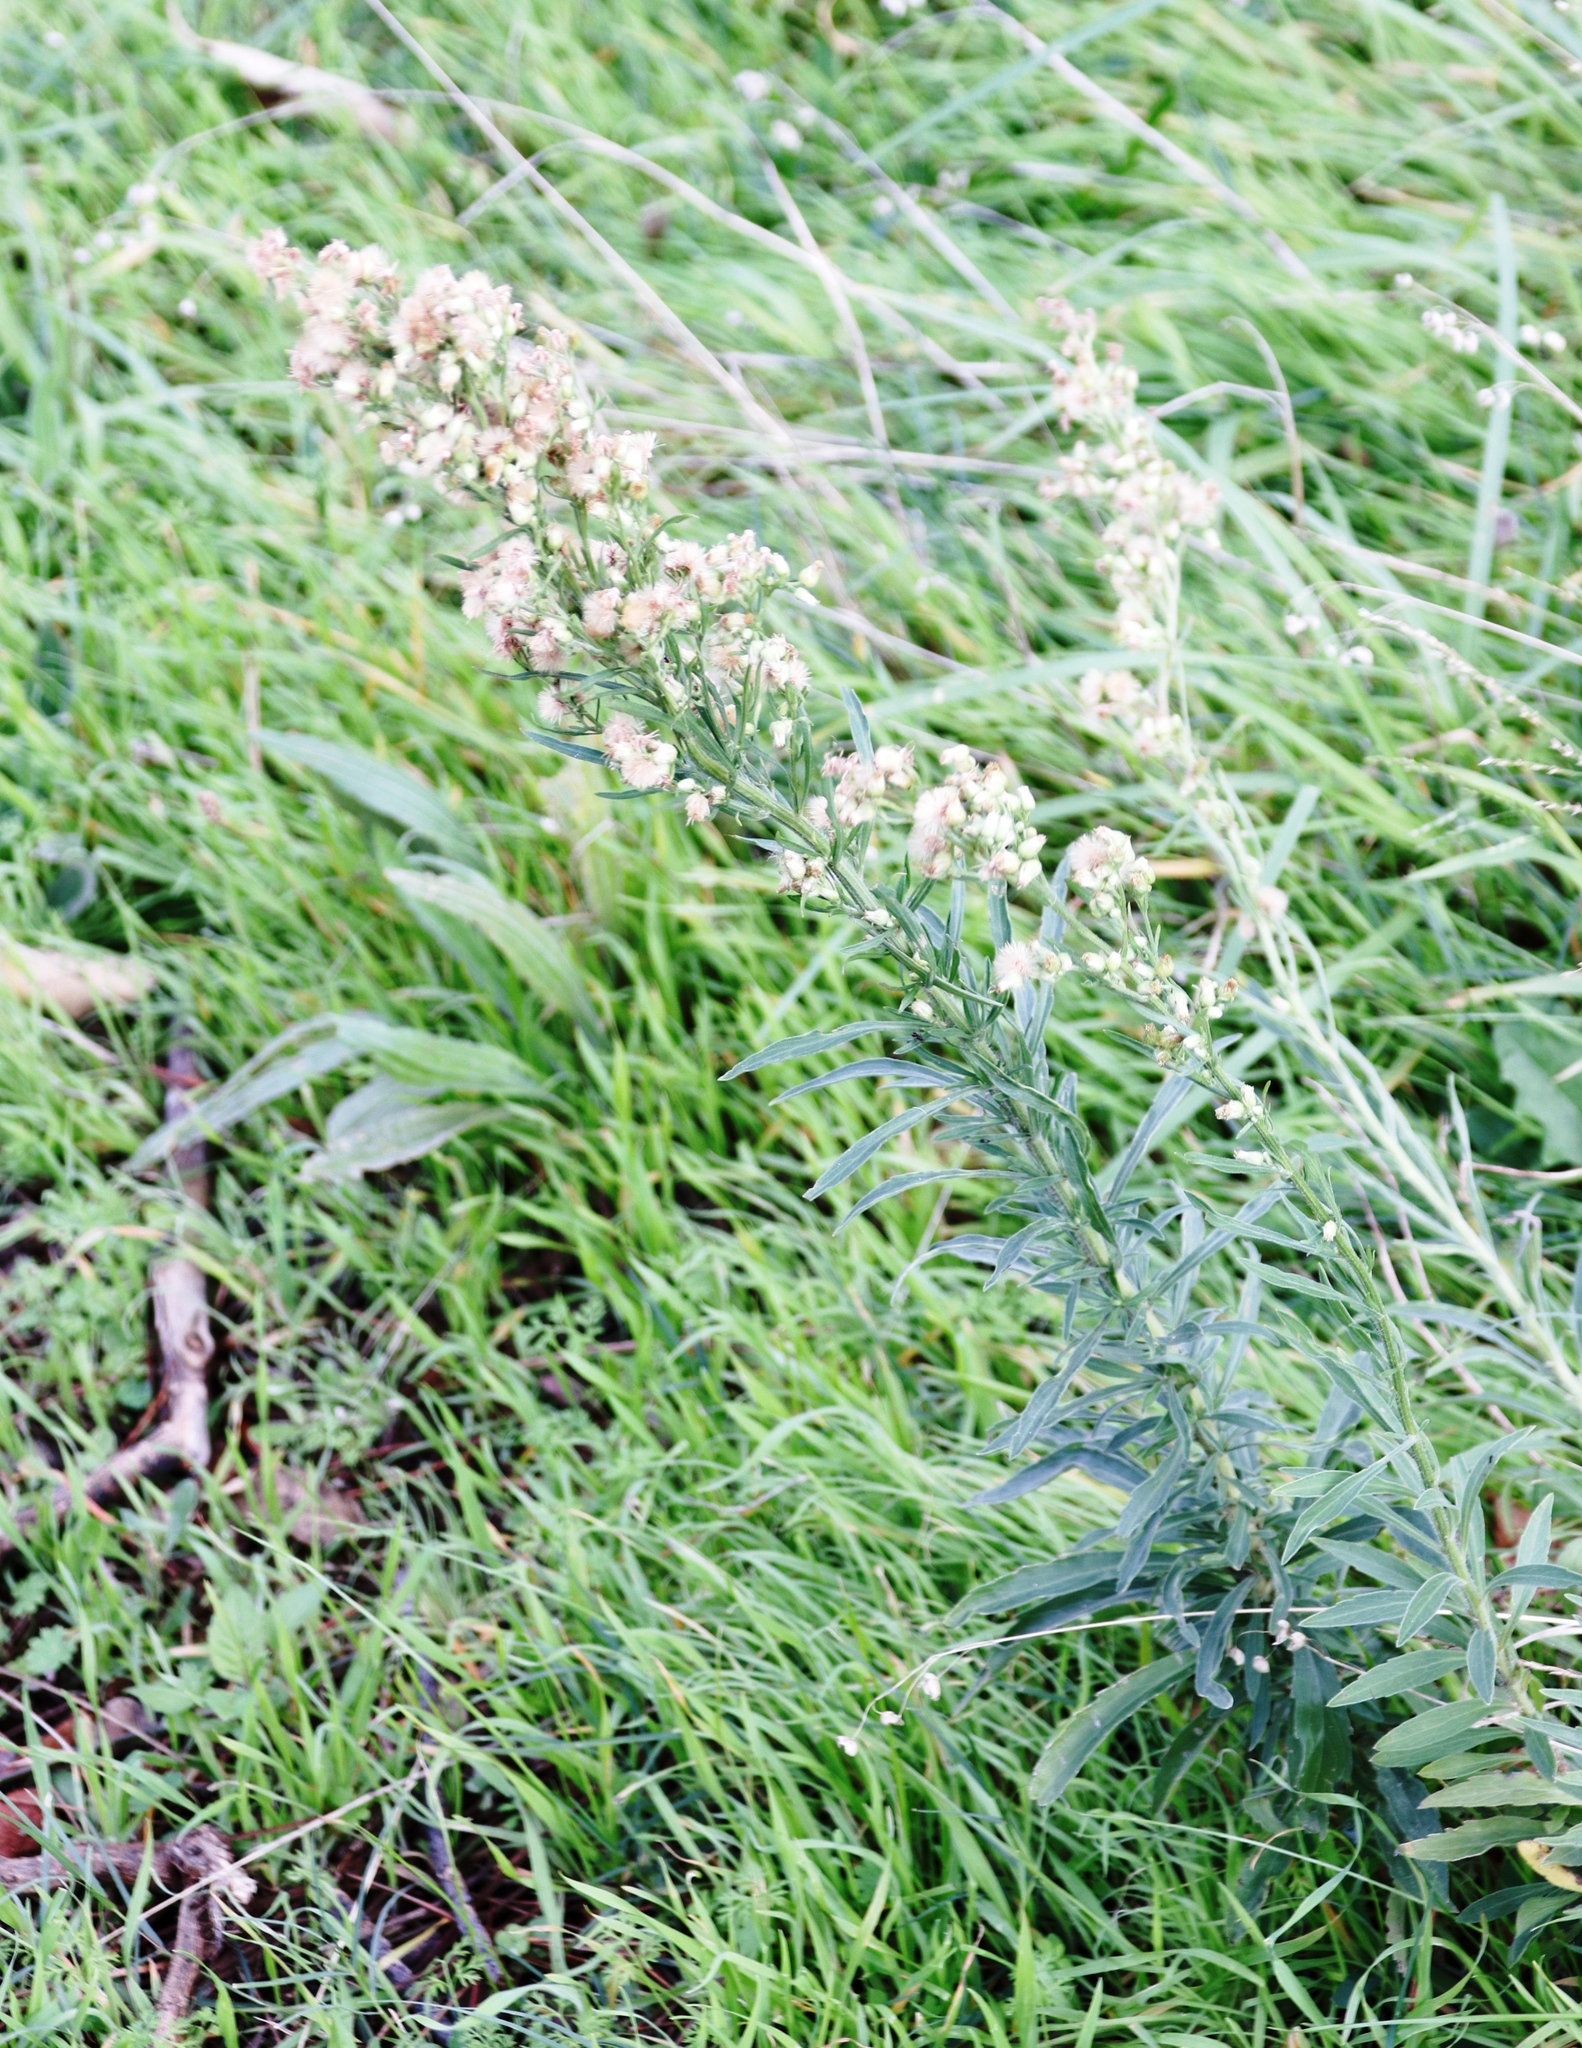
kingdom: Plantae
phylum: Tracheophyta
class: Magnoliopsida
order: Asterales
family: Asteraceae
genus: Erigeron
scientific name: Erigeron sumatrensis
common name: Daisy
